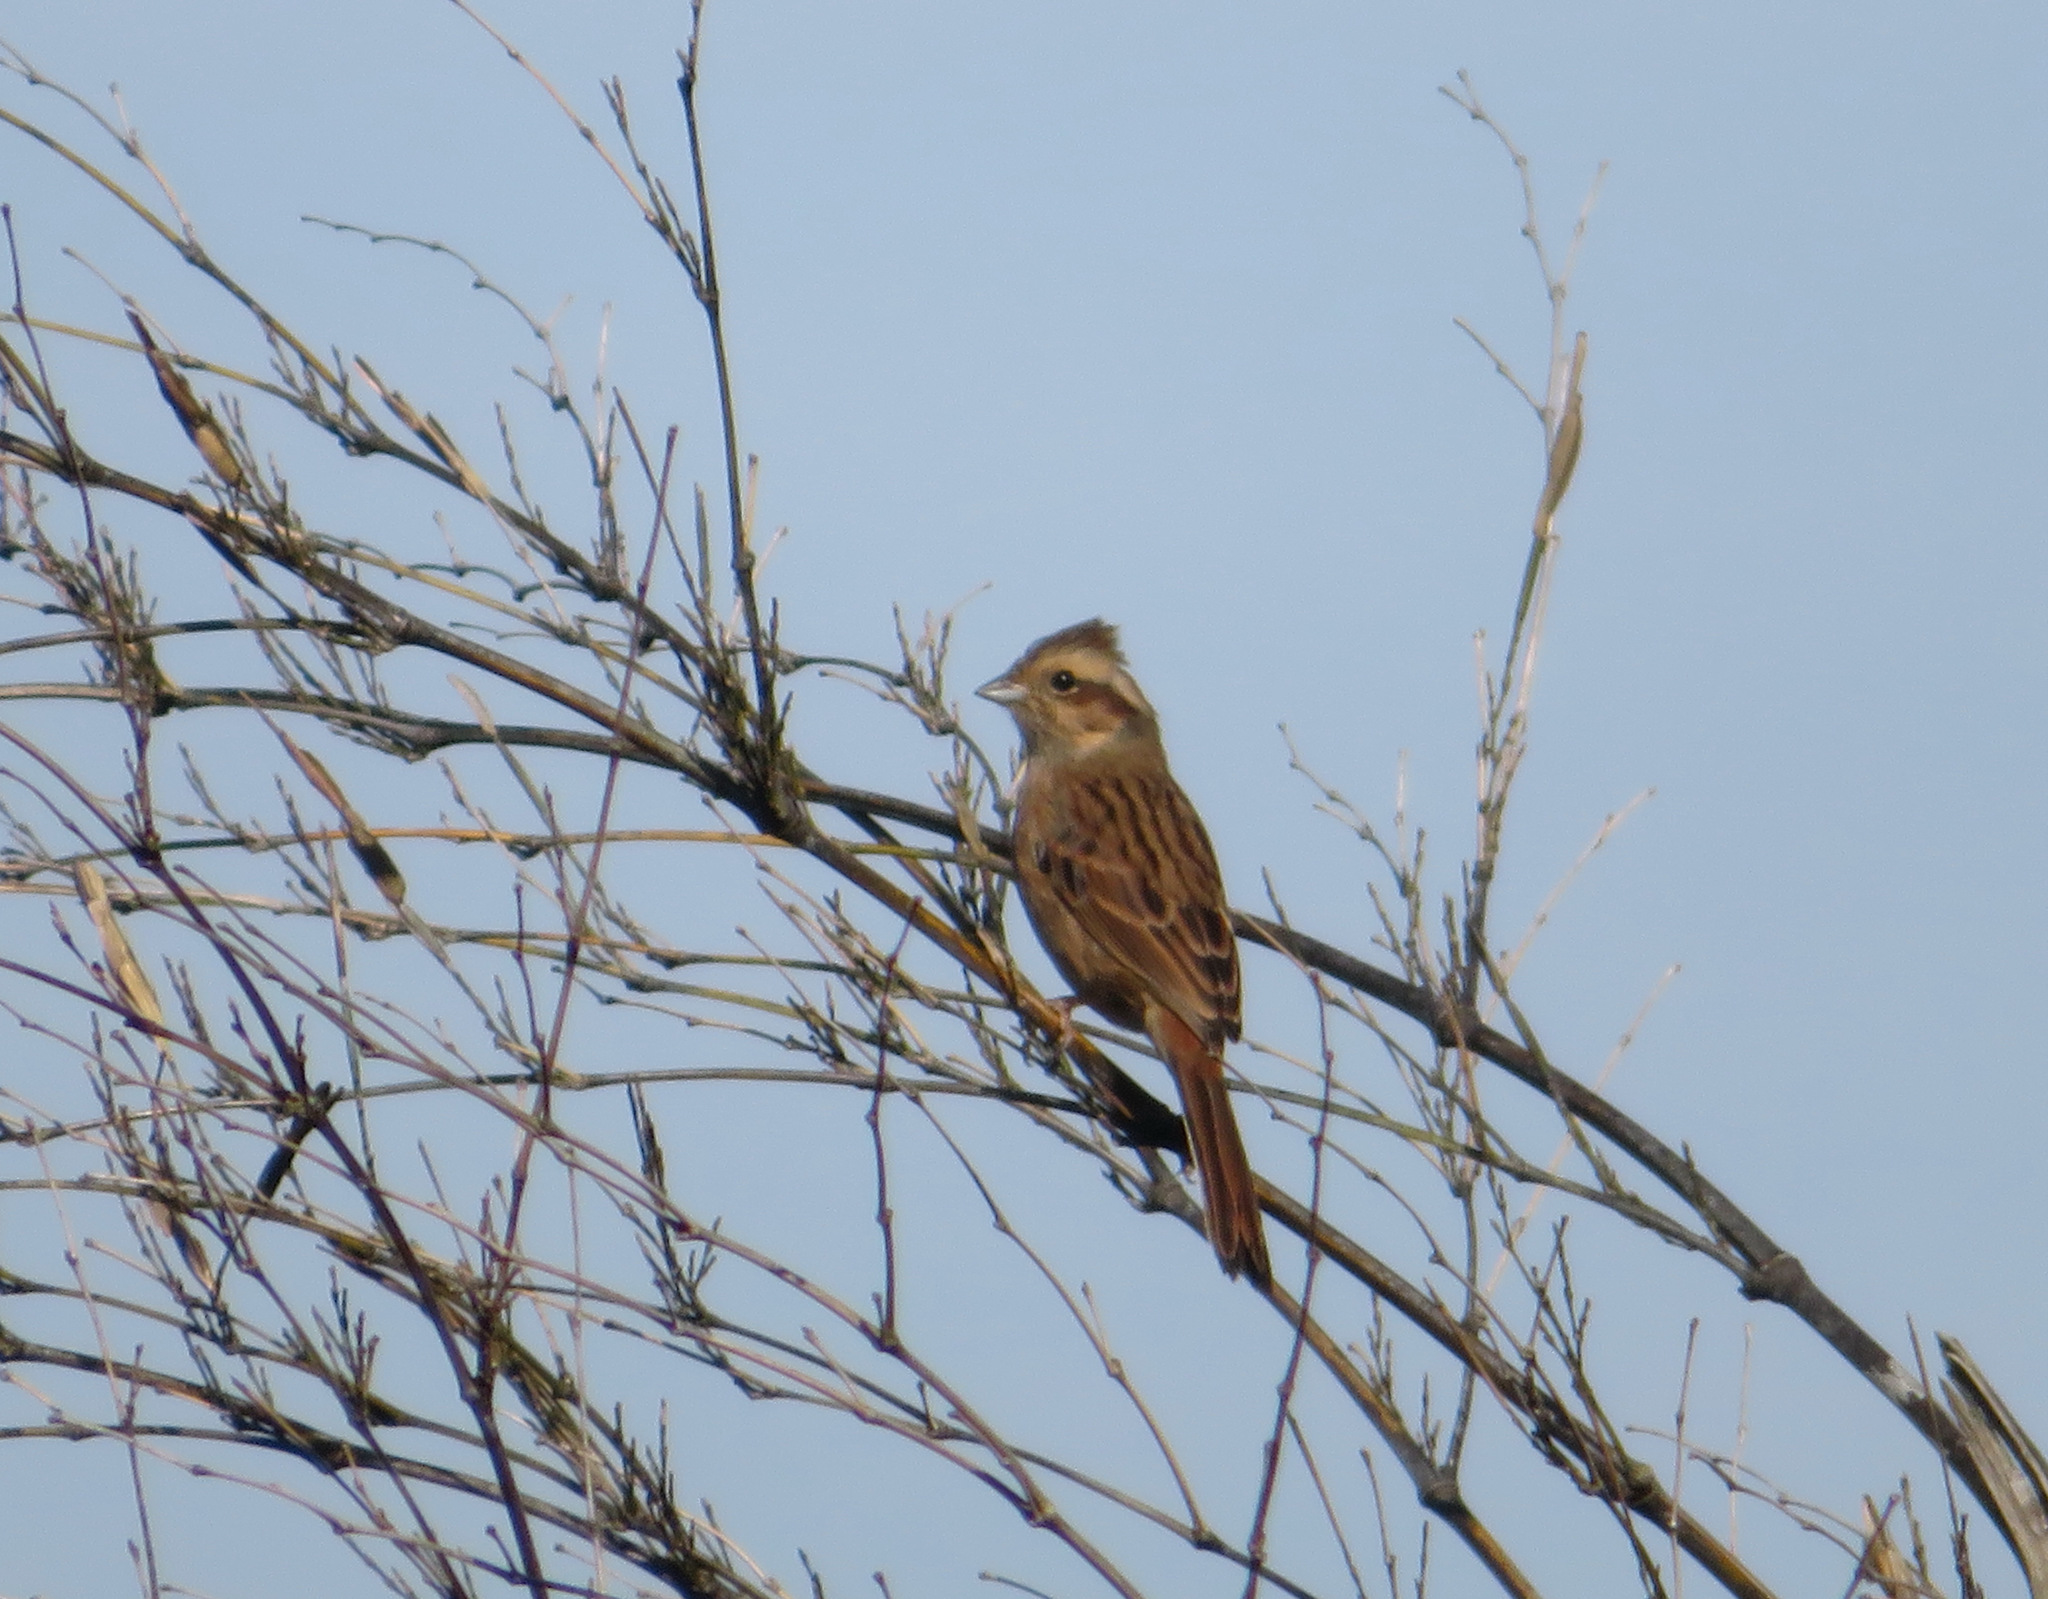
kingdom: Animalia
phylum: Chordata
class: Aves
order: Passeriformes
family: Emberizidae
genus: Emberiza
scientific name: Emberiza cioides
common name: Meadow bunting
